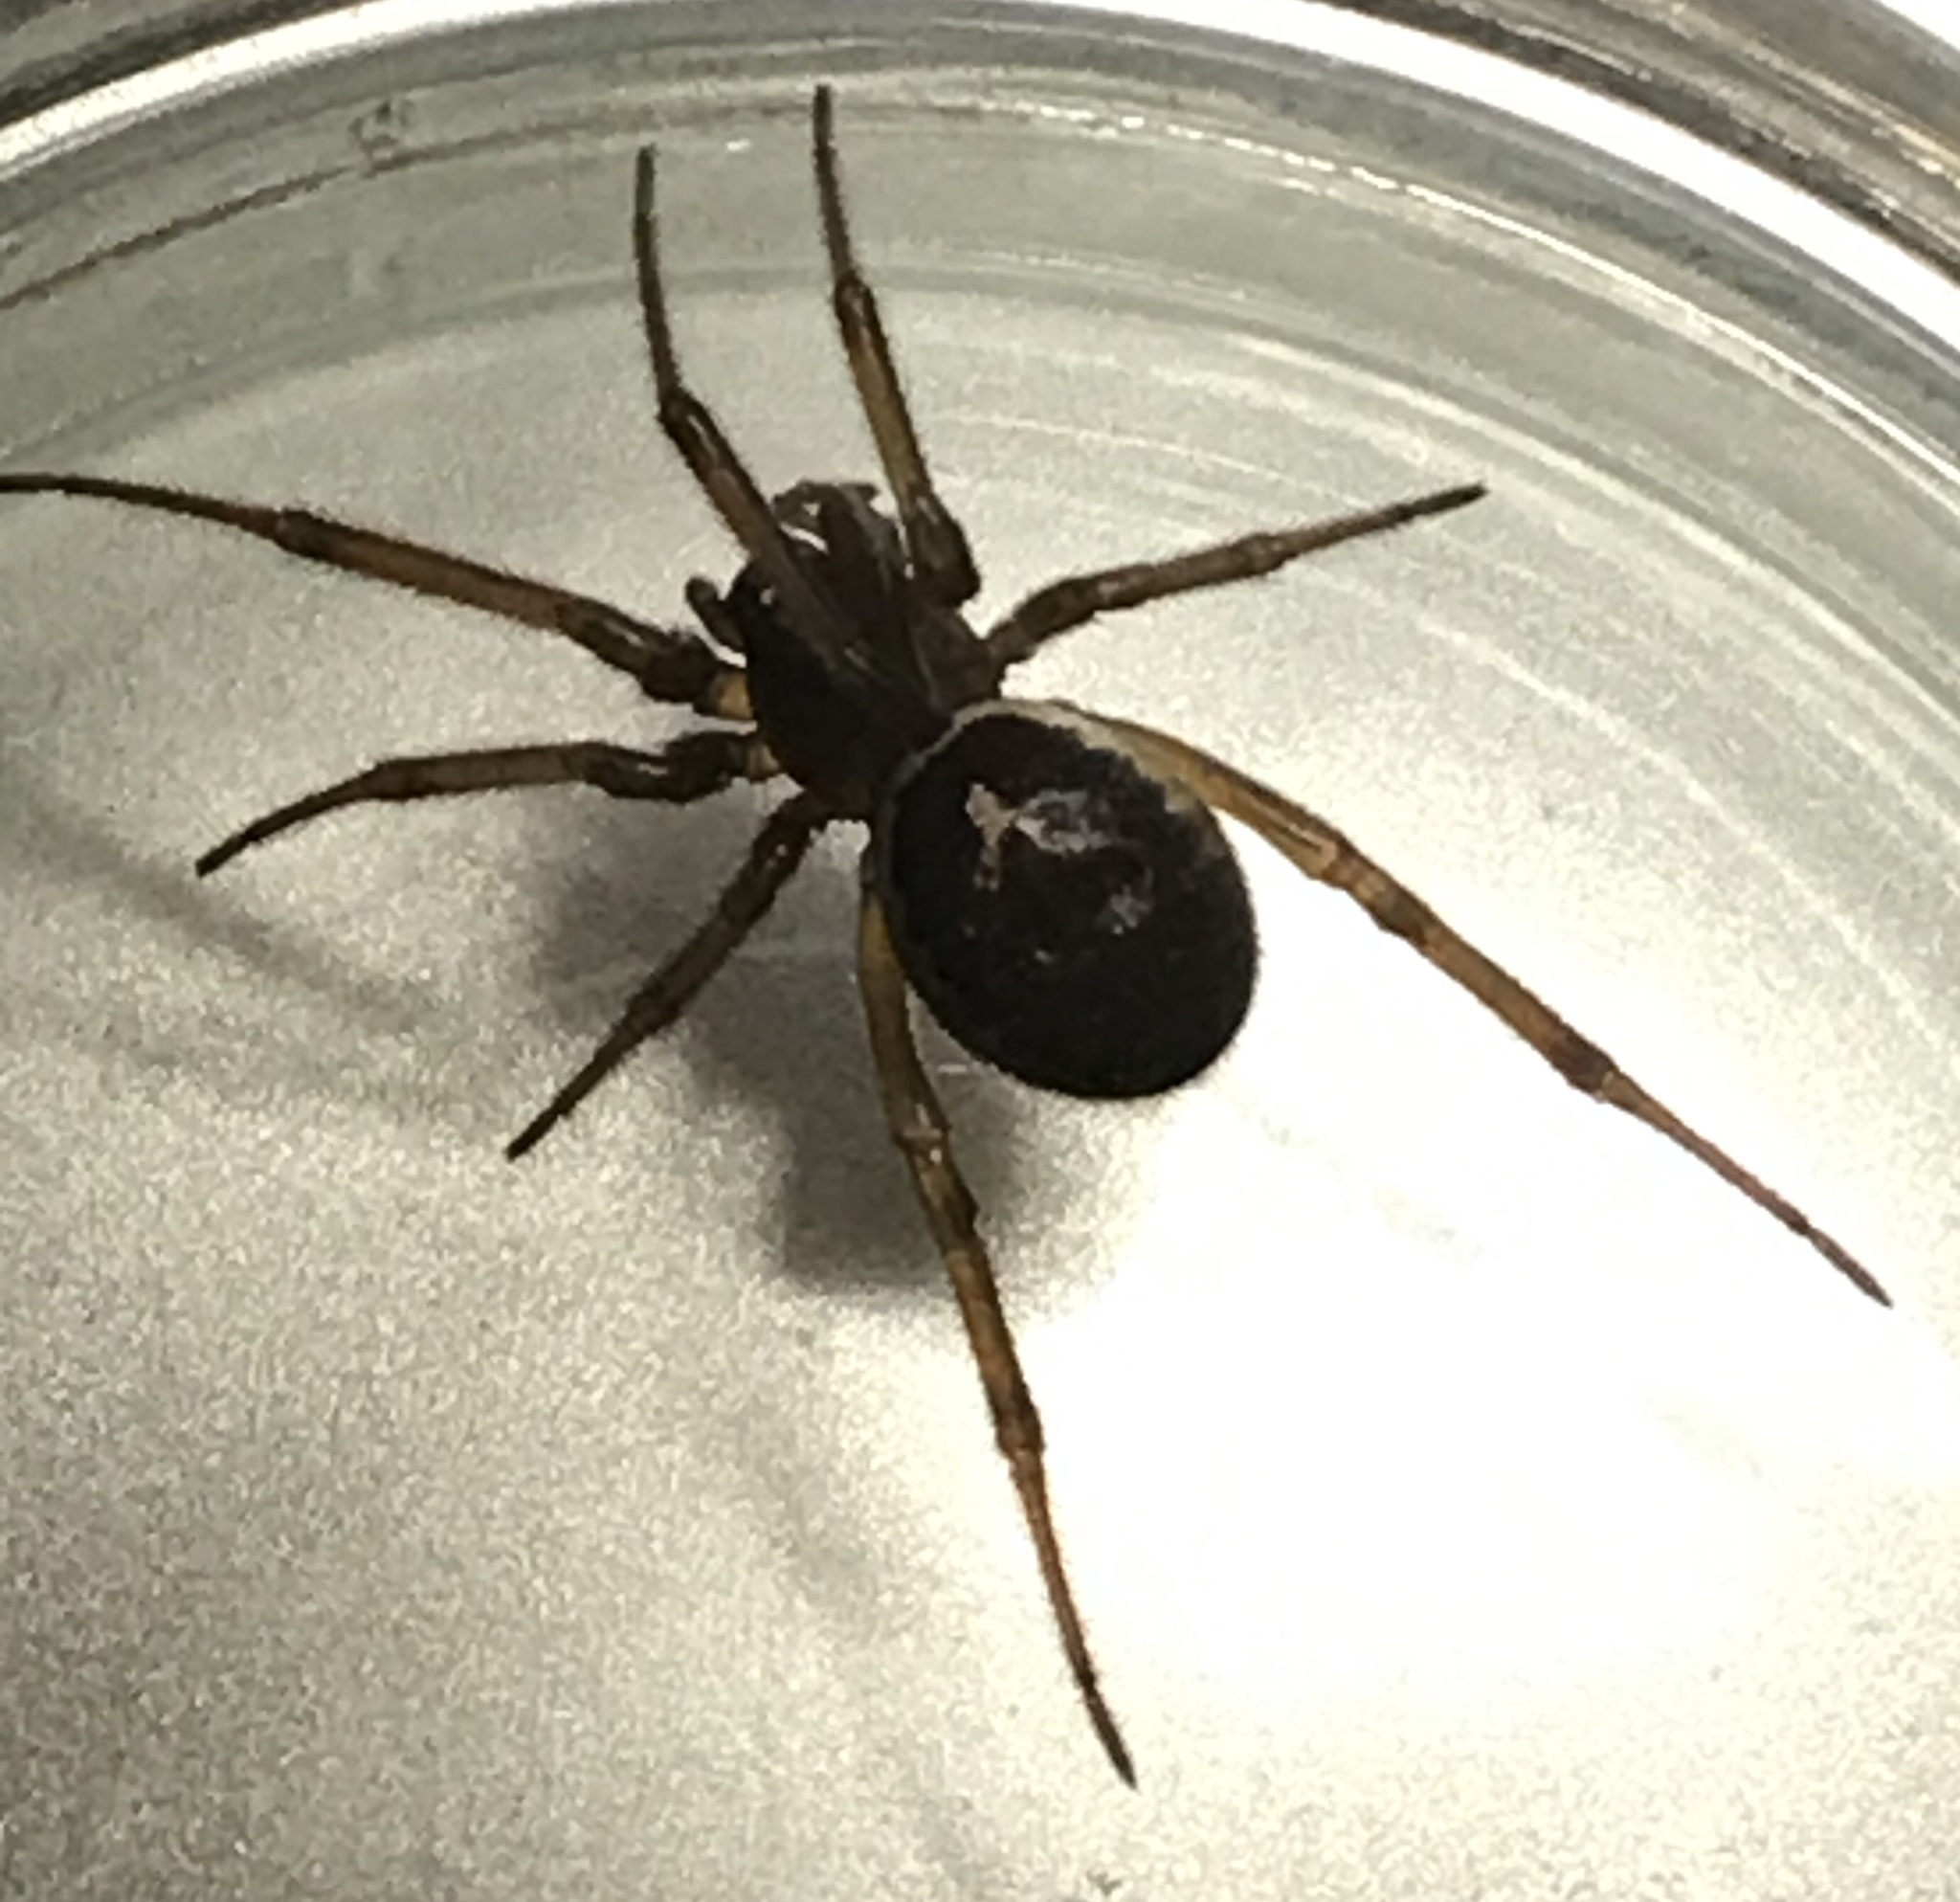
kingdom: Animalia
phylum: Arthropoda
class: Arachnida
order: Araneae
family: Theridiidae
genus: Steatoda
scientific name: Steatoda nobilis
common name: Cobweb weaver
